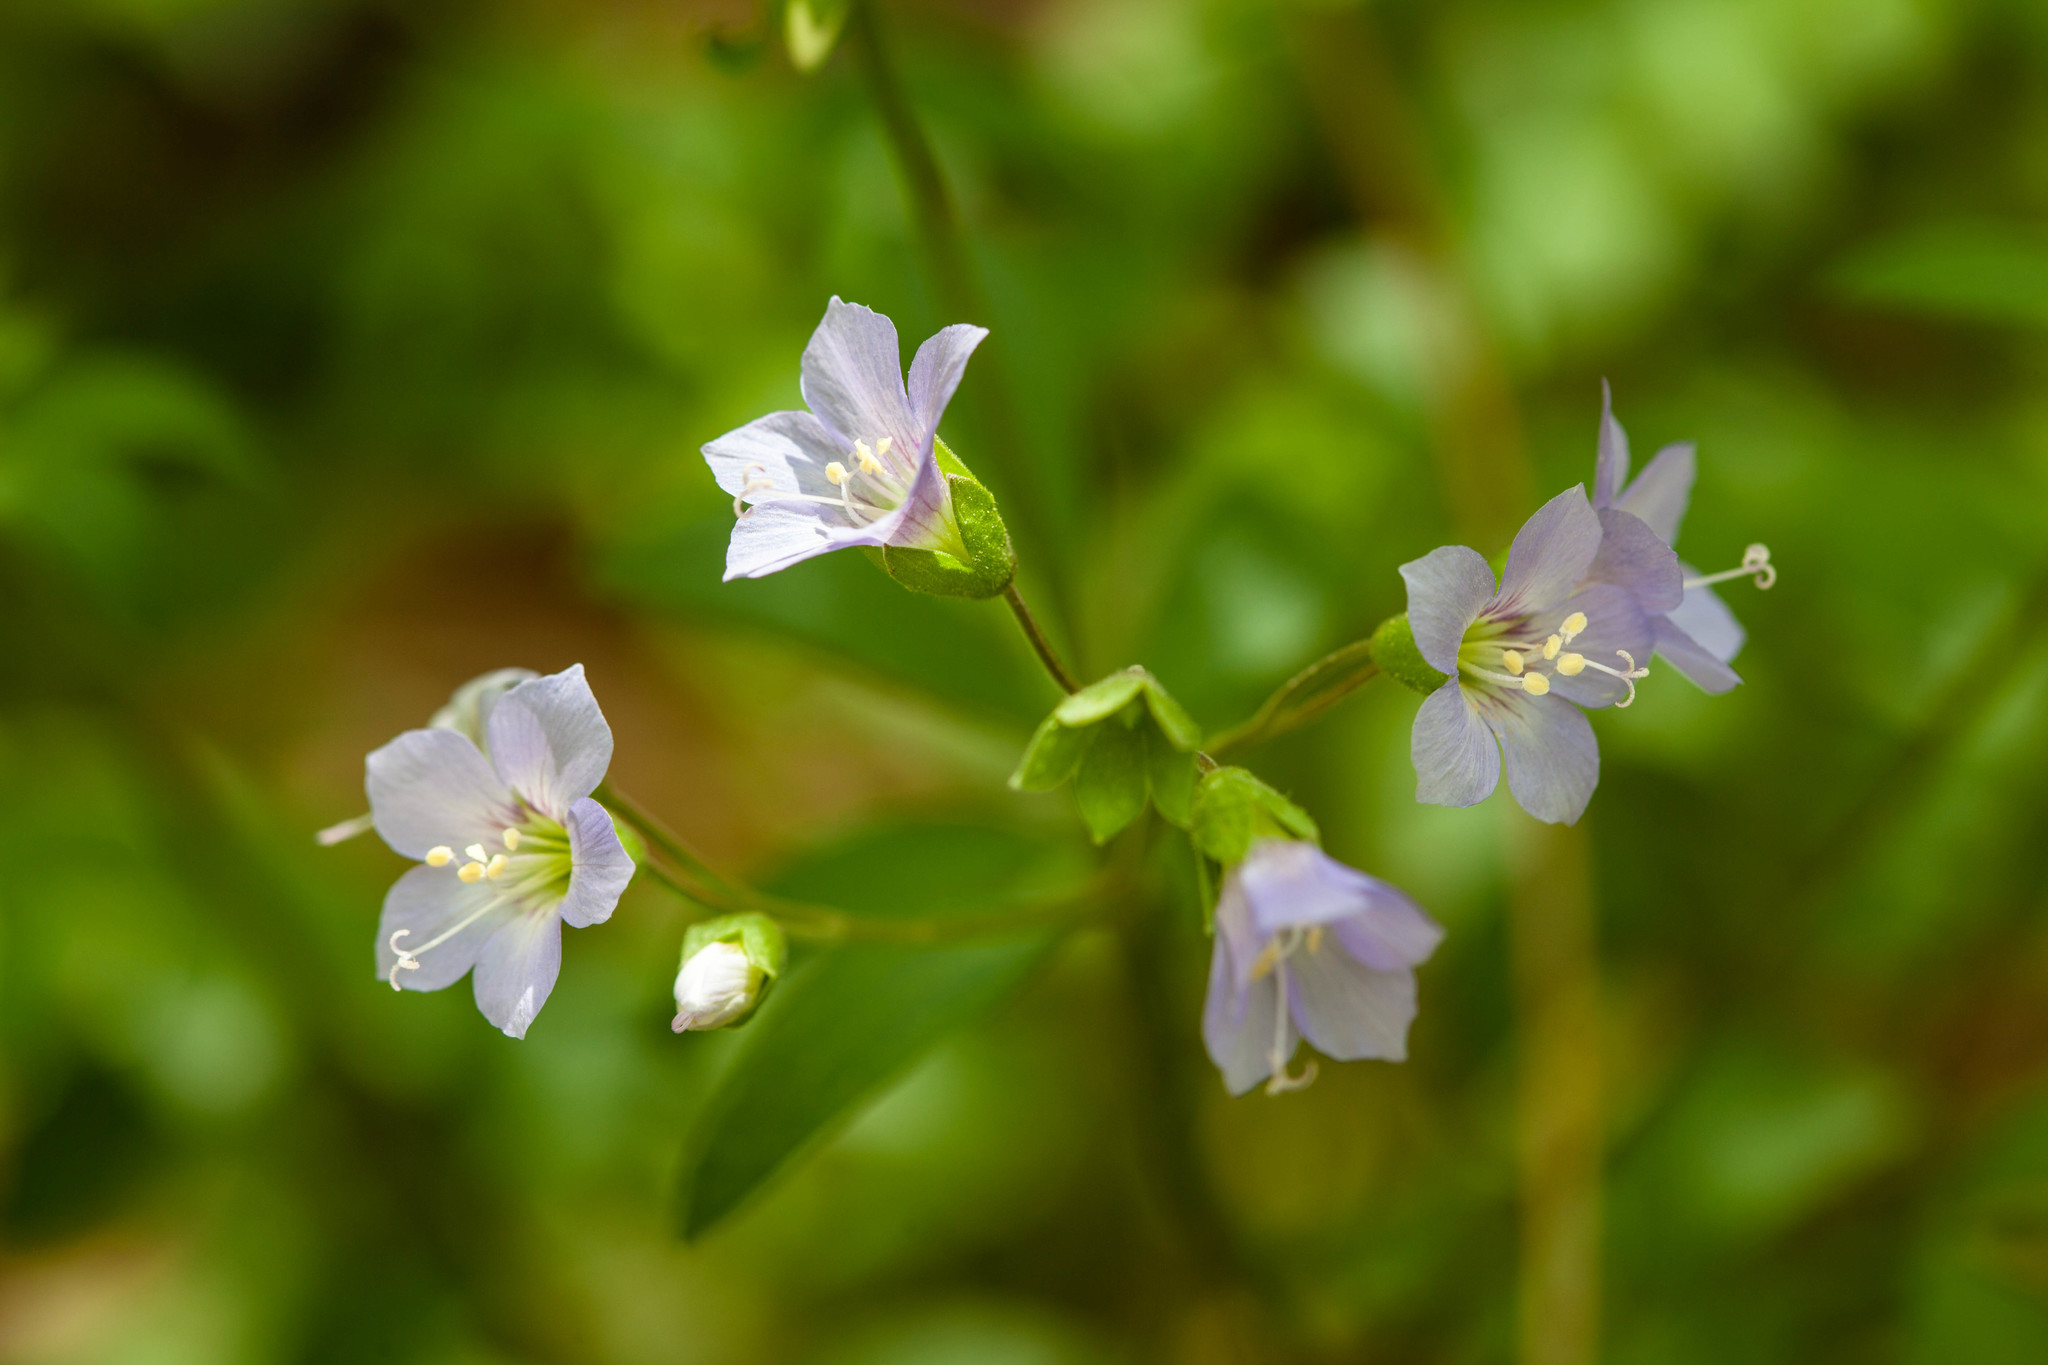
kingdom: Plantae
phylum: Tracheophyta
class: Magnoliopsida
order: Ericales
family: Polemoniaceae
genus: Polemonium
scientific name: Polemonium reptans
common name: Creeping jacob's-ladder
